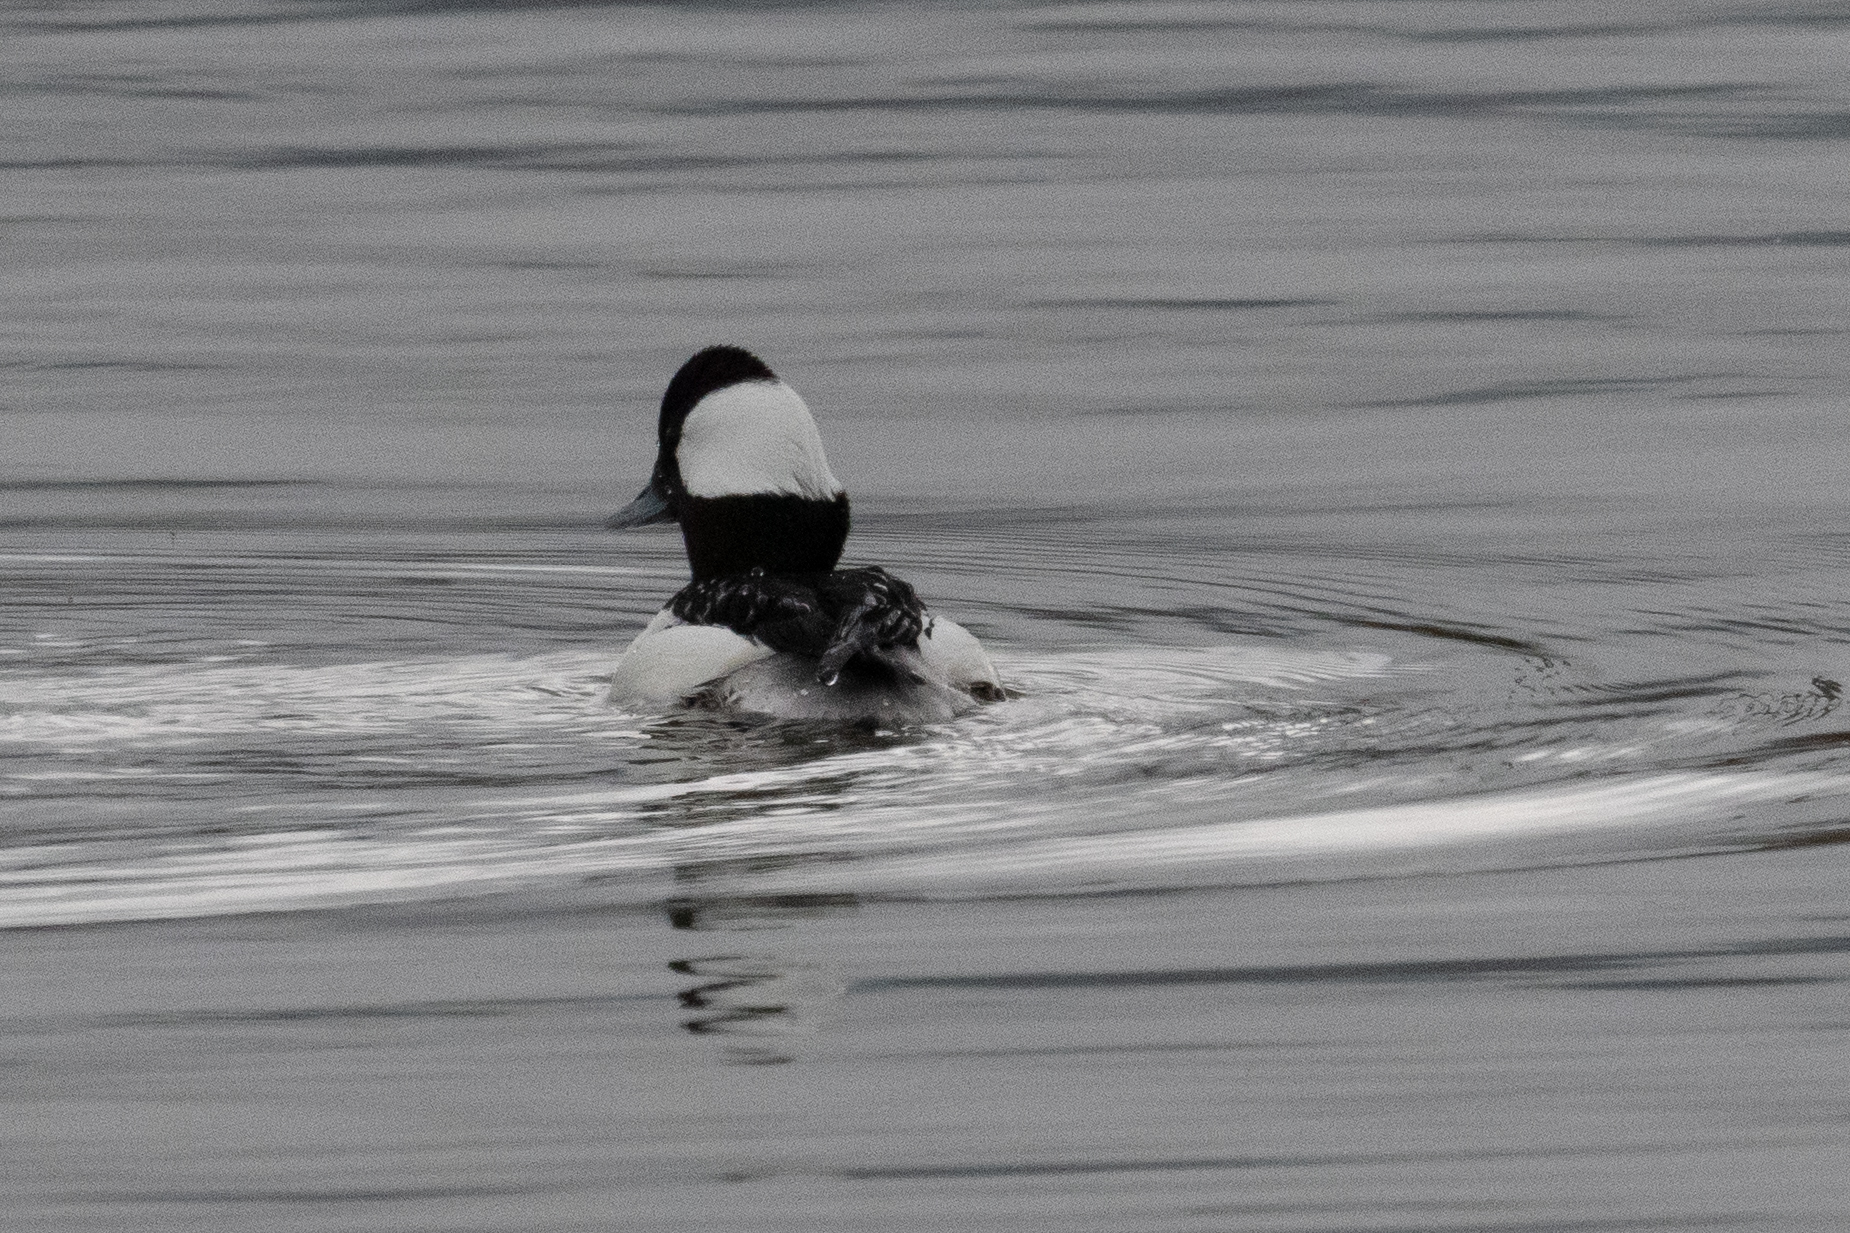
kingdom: Animalia
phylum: Chordata
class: Aves
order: Anseriformes
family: Anatidae
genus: Bucephala
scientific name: Bucephala albeola
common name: Bufflehead
